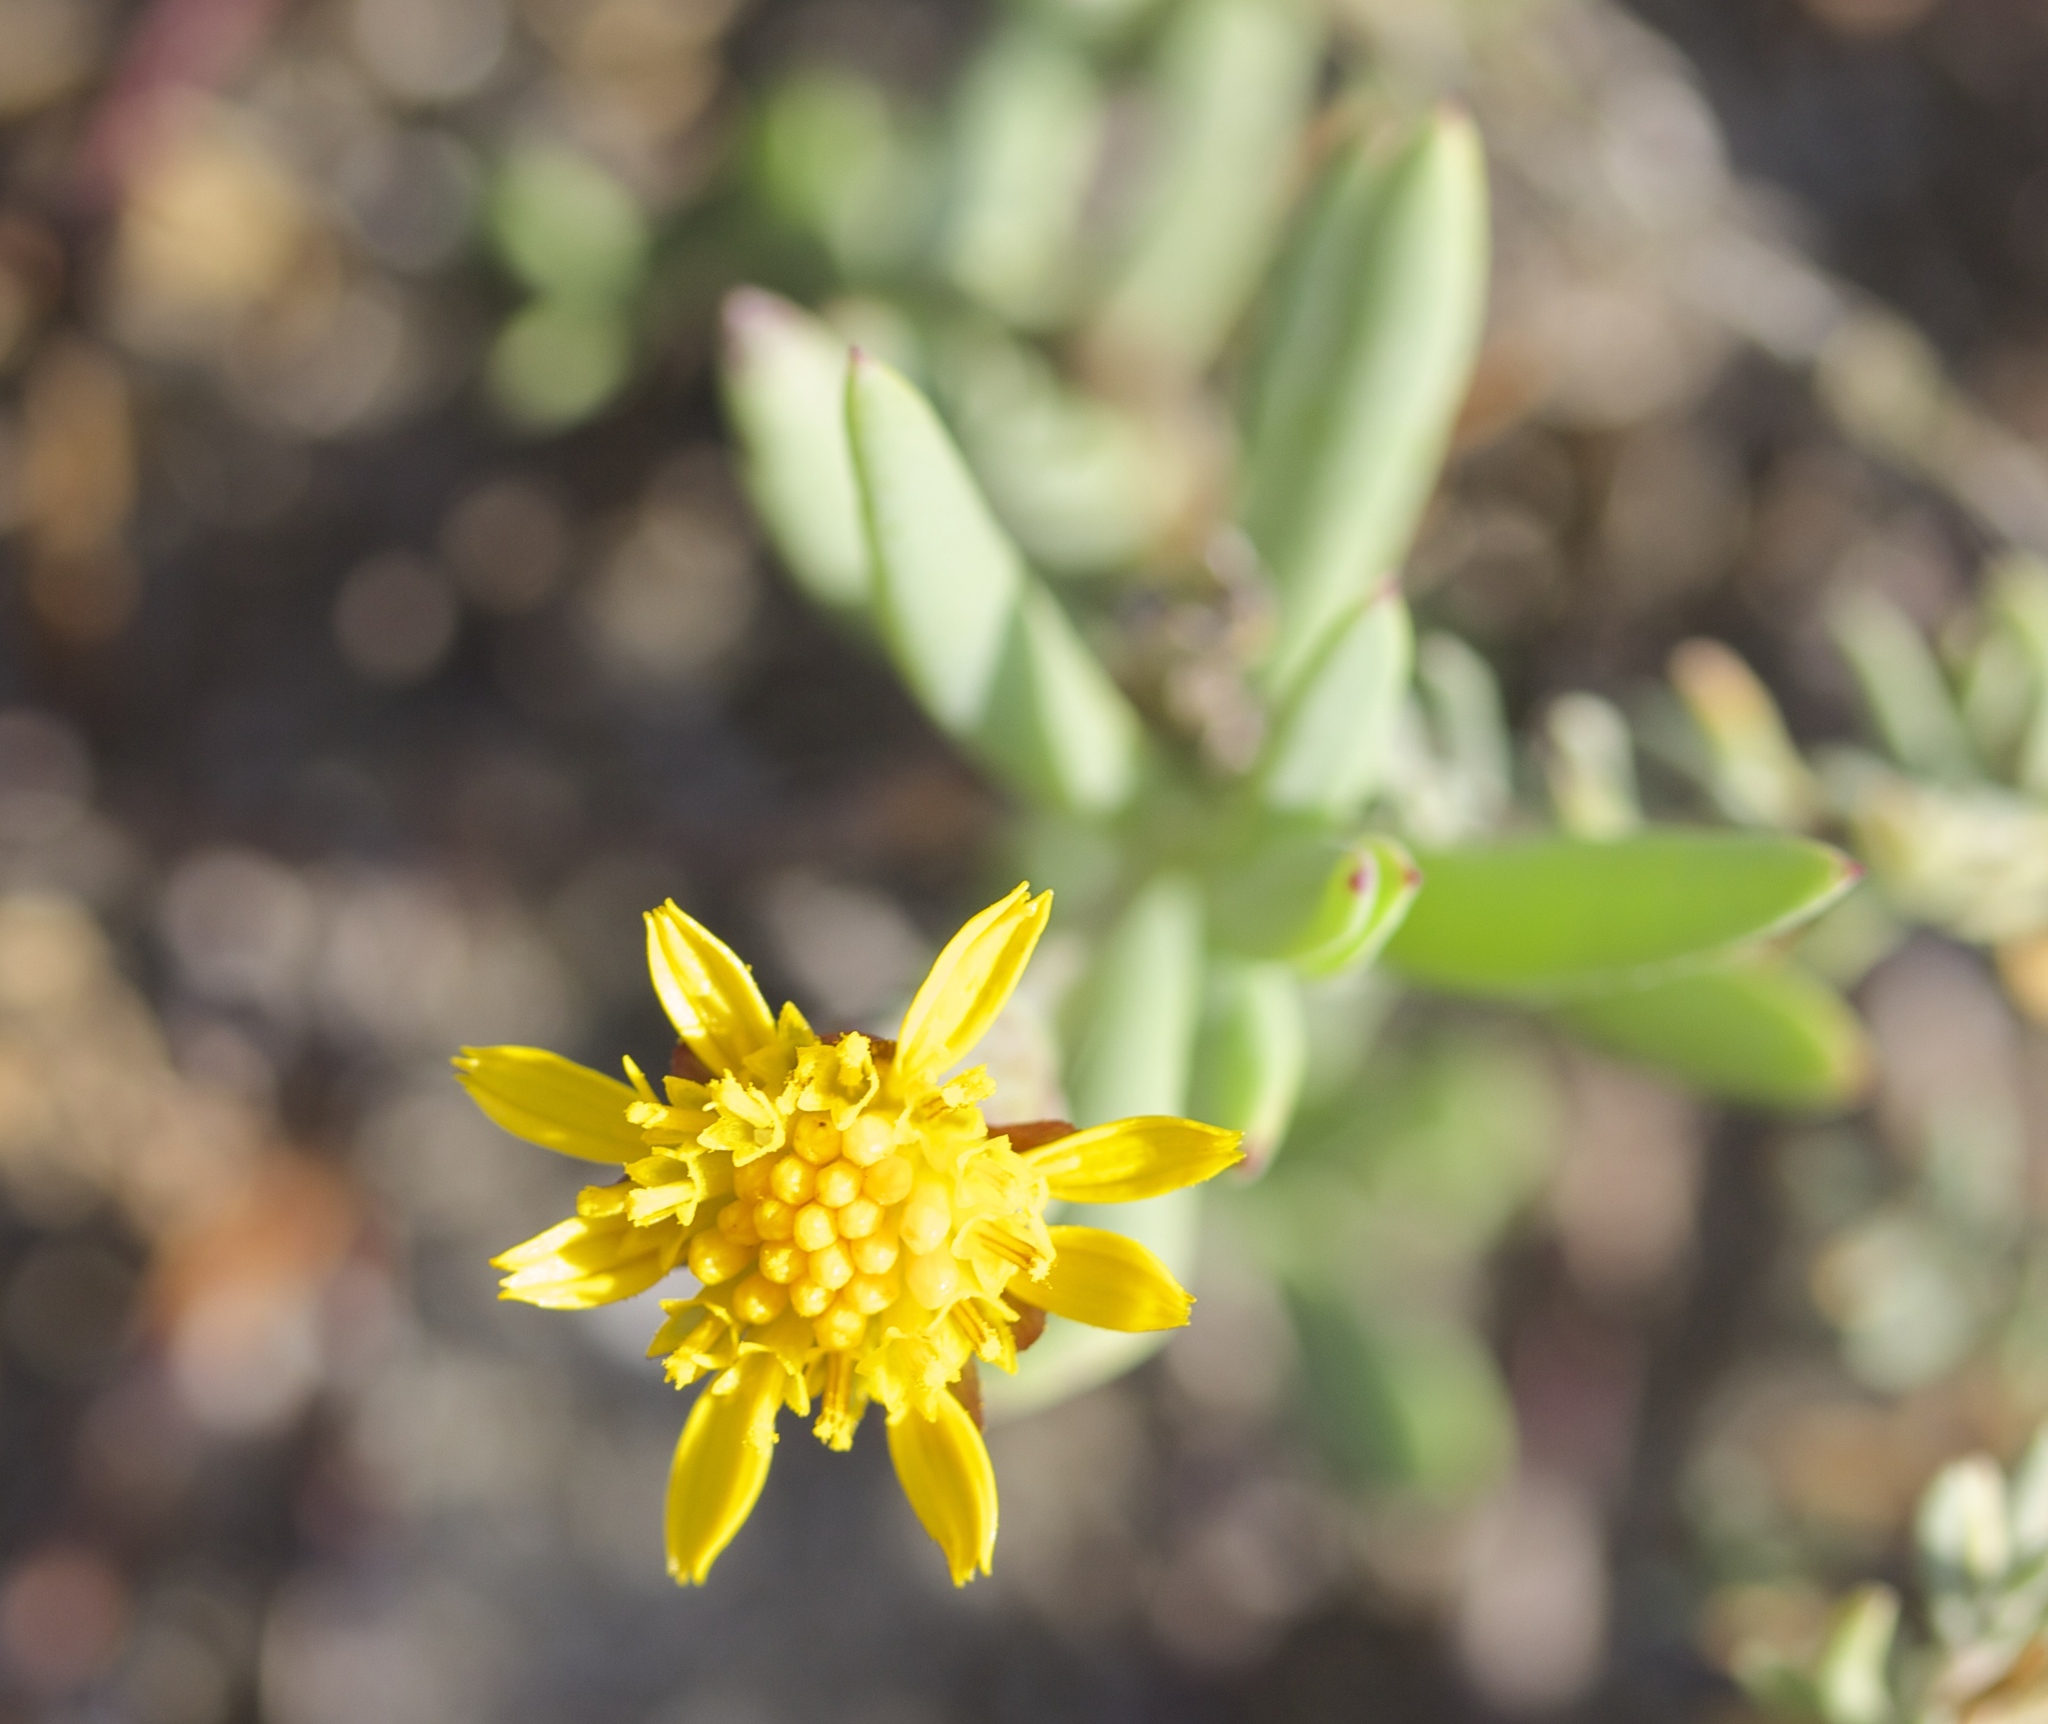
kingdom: Plantae
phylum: Tracheophyta
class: Magnoliopsida
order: Asterales
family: Asteraceae
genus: Jaumea
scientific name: Jaumea carnosa
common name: Fleshy jaumea
